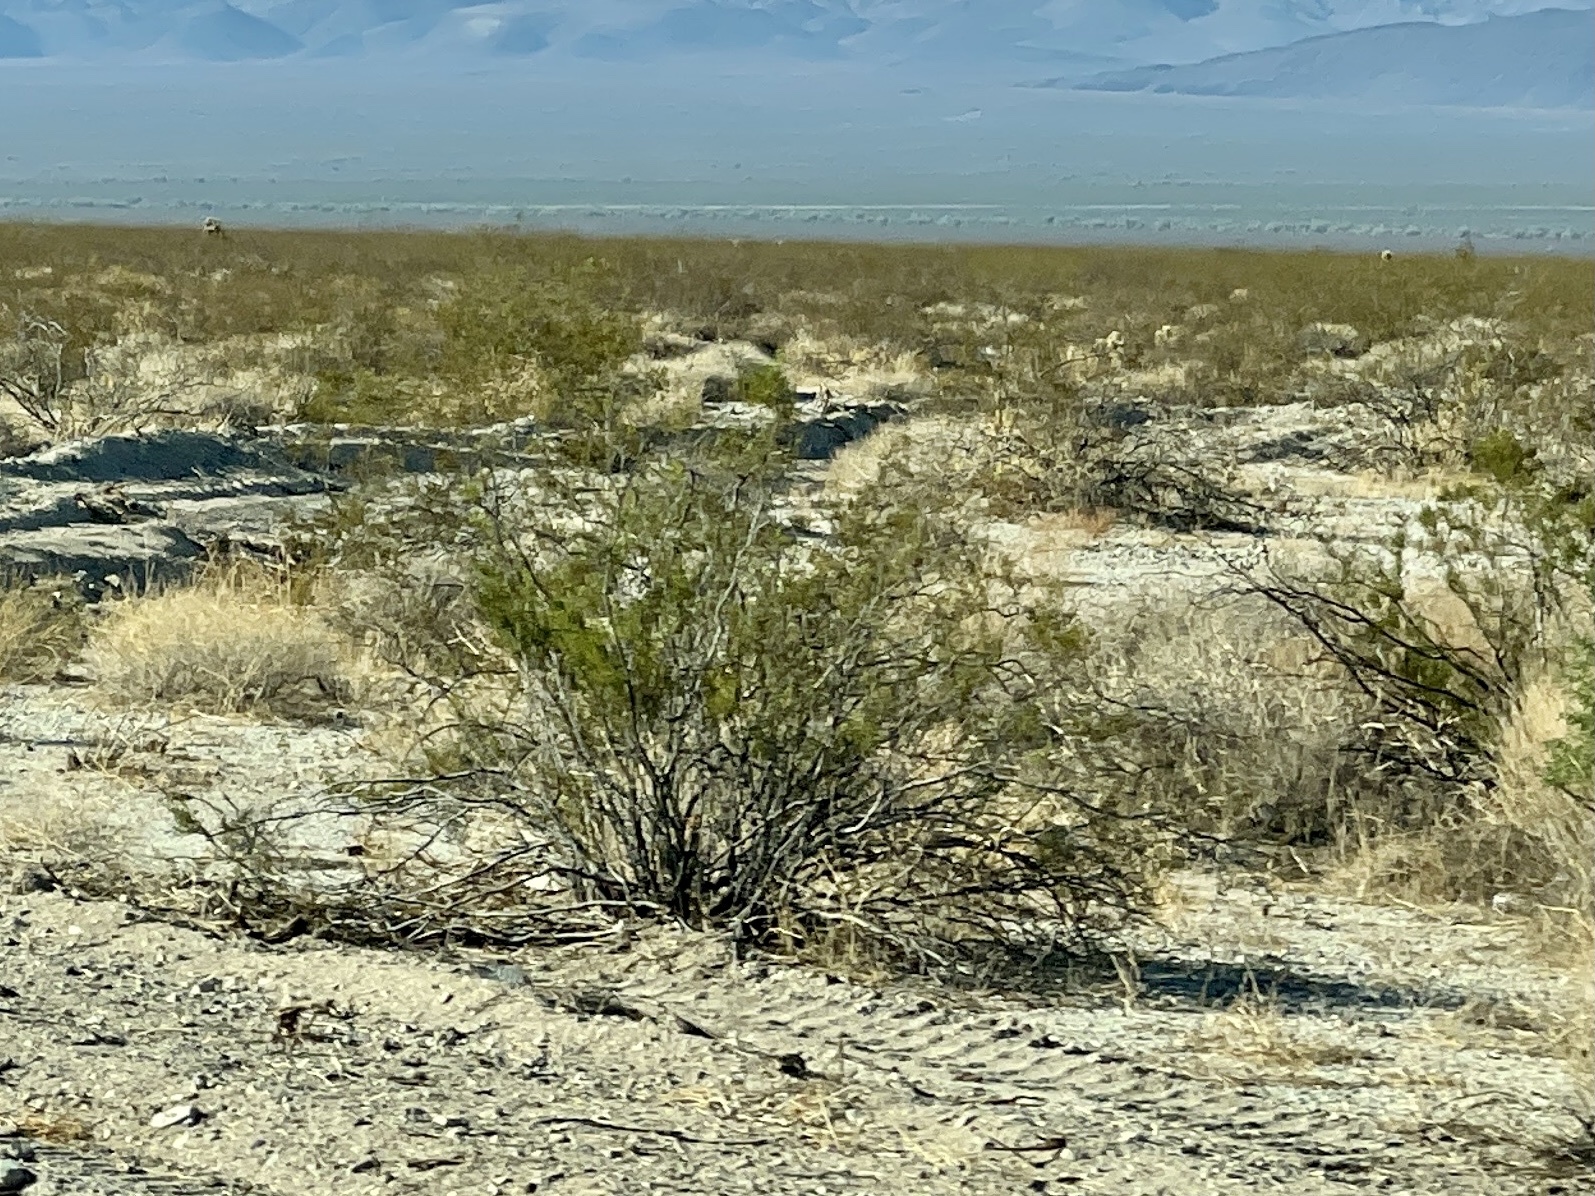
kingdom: Plantae
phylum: Tracheophyta
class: Magnoliopsida
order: Zygophyllales
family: Zygophyllaceae
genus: Larrea
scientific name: Larrea tridentata
